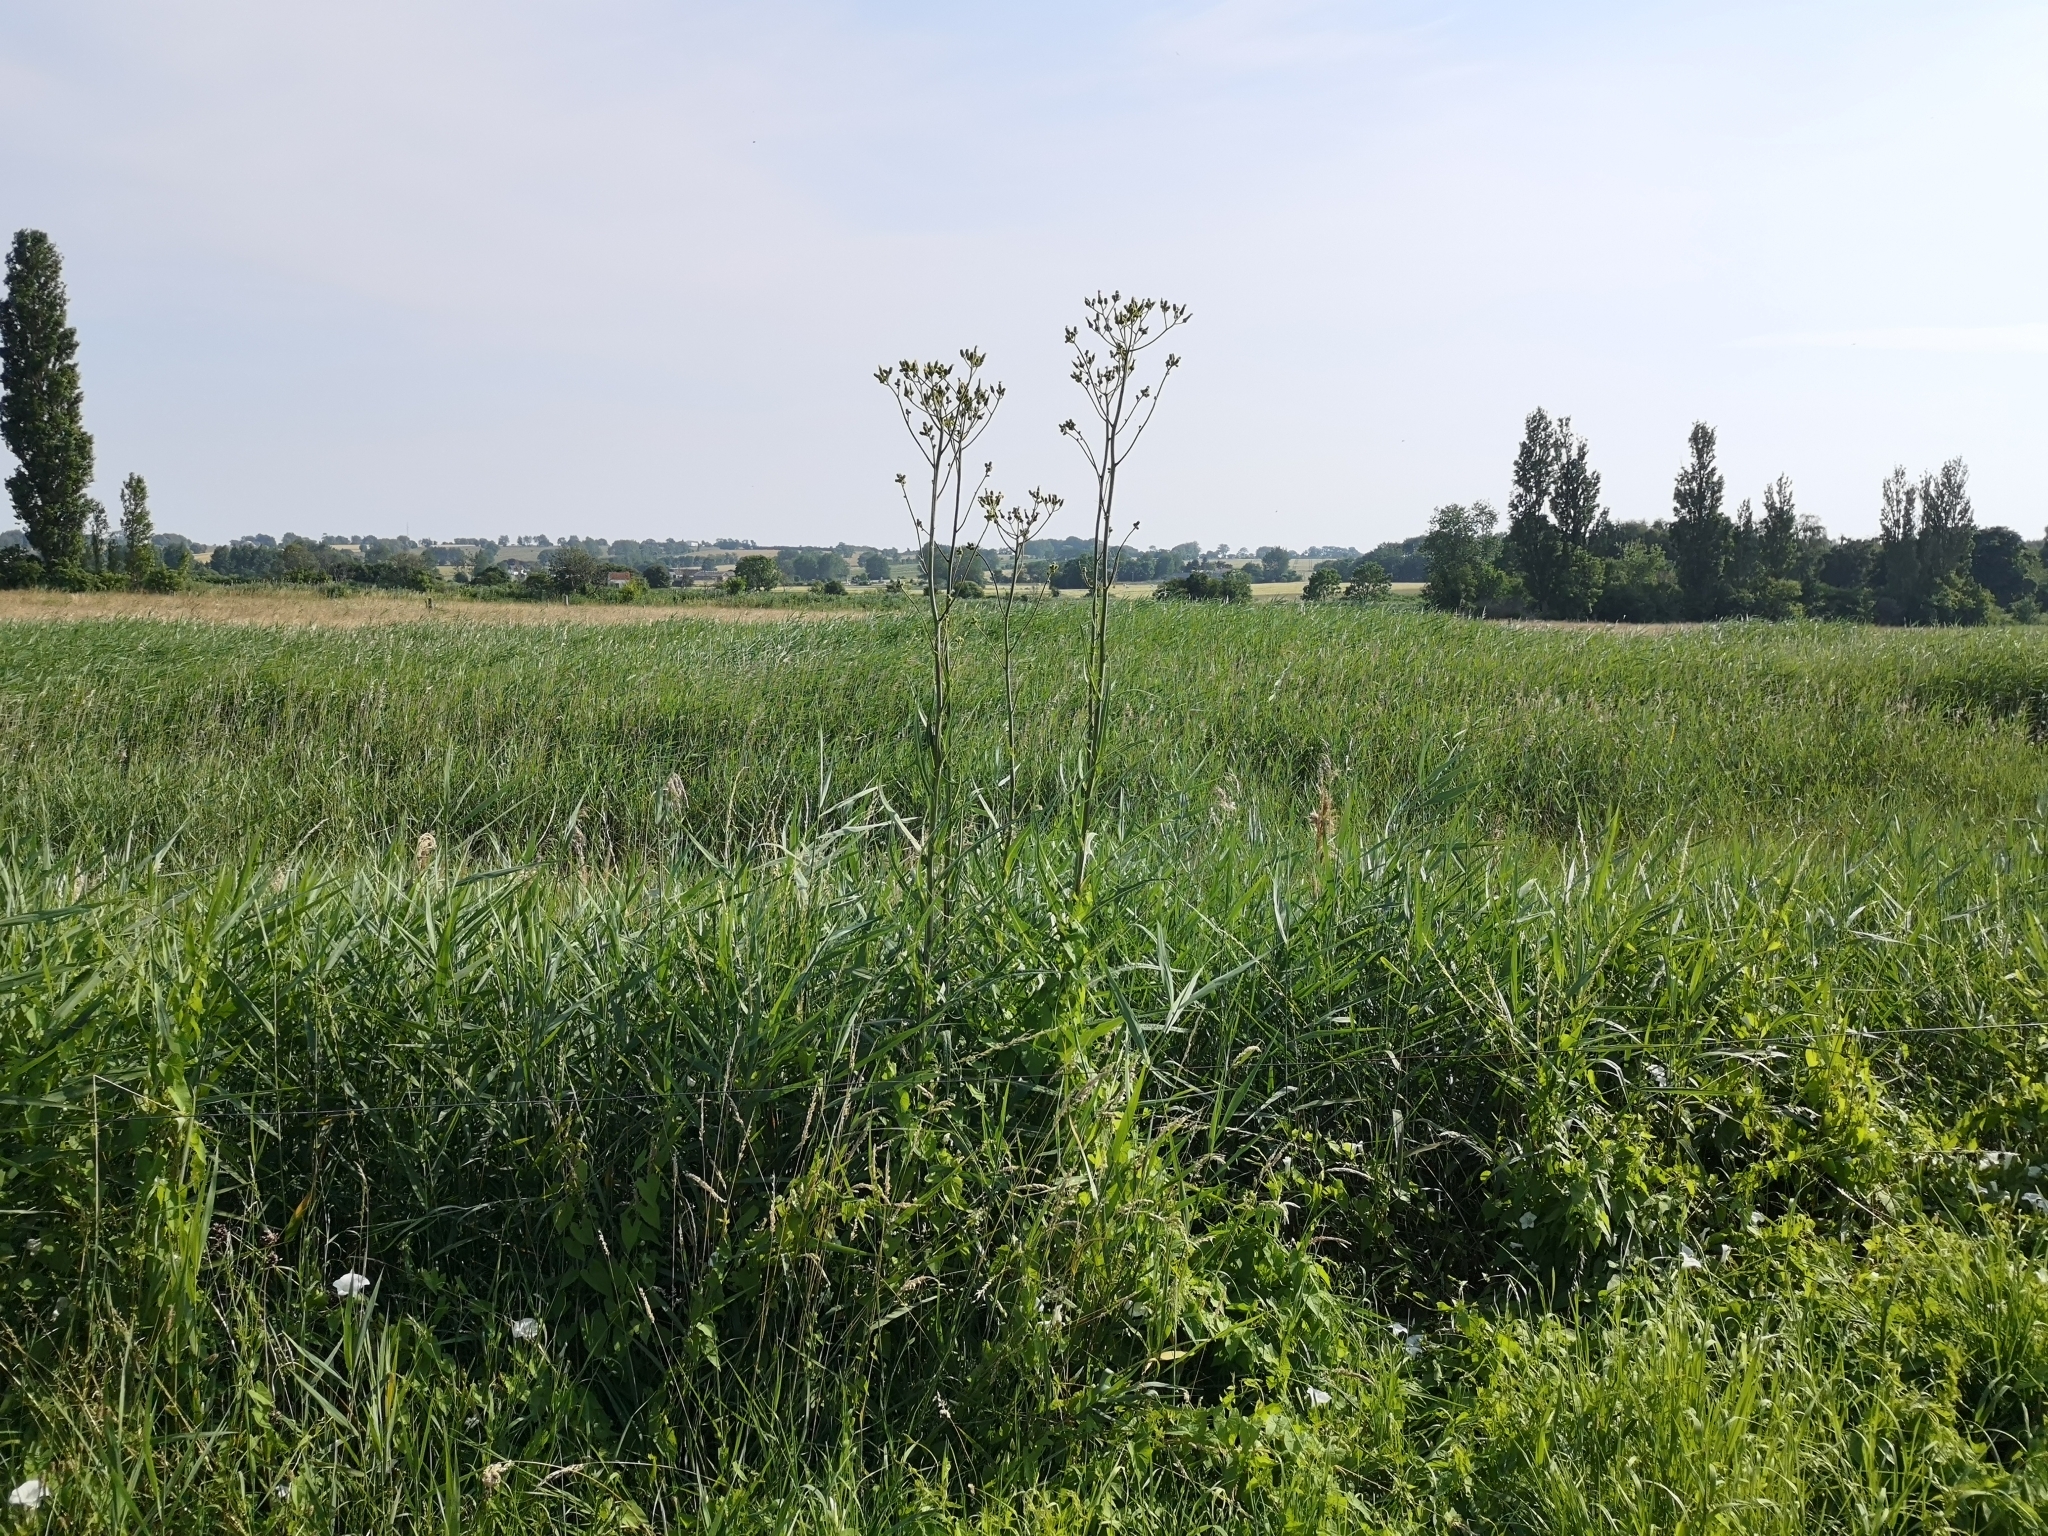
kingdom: Plantae
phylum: Tracheophyta
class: Magnoliopsida
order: Asterales
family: Asteraceae
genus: Sonchus
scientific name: Sonchus palustris
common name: Marsh sow-thistle
